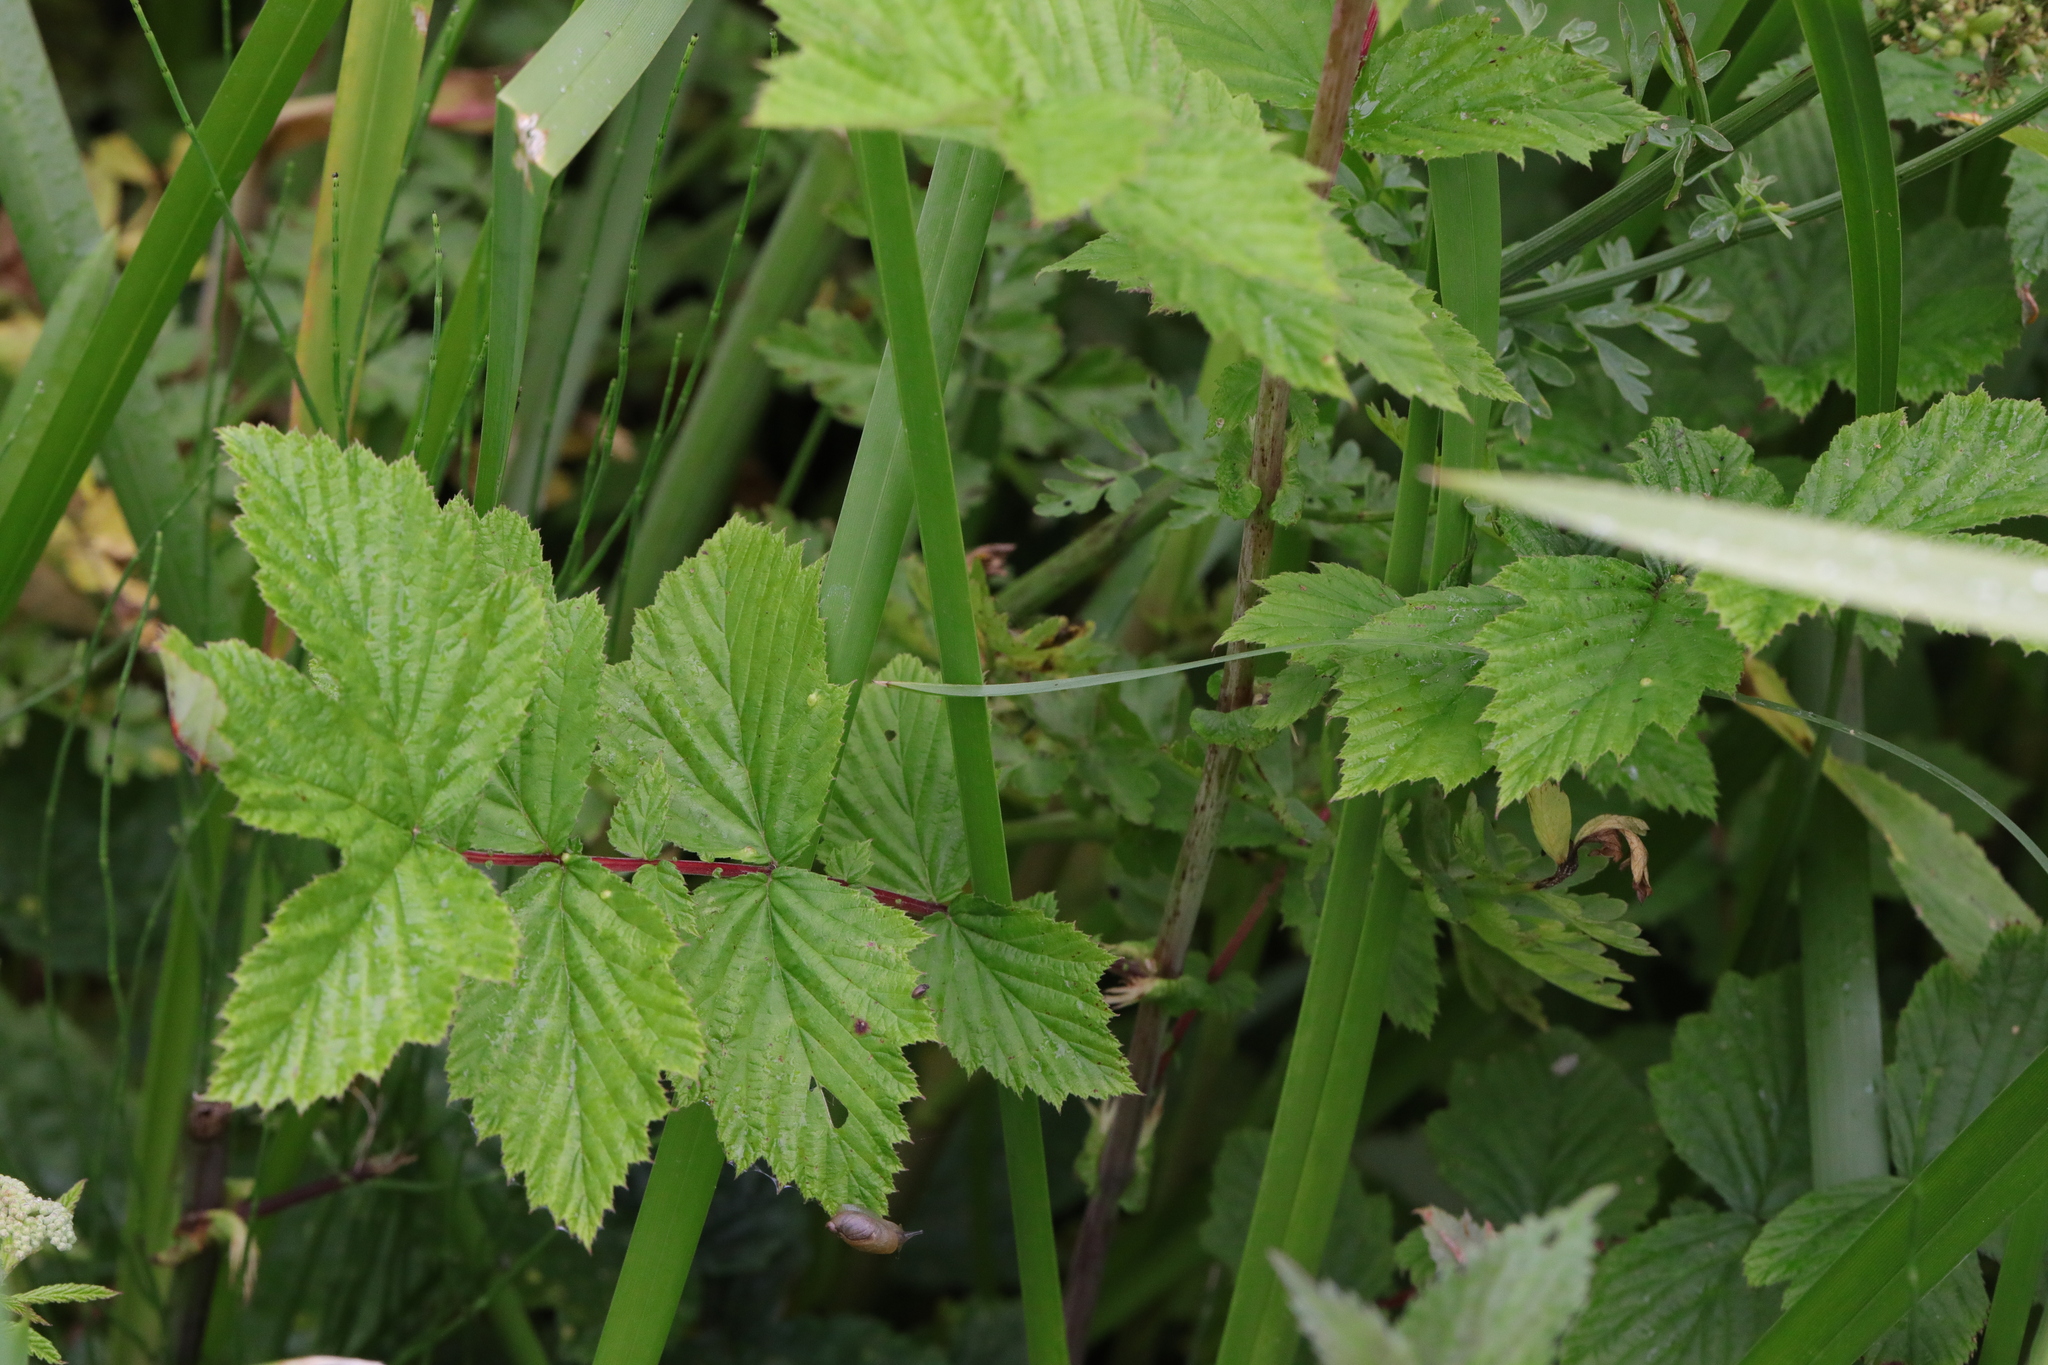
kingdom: Plantae
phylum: Tracheophyta
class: Magnoliopsida
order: Rosales
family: Rosaceae
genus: Filipendula
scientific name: Filipendula ulmaria
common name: Meadowsweet
